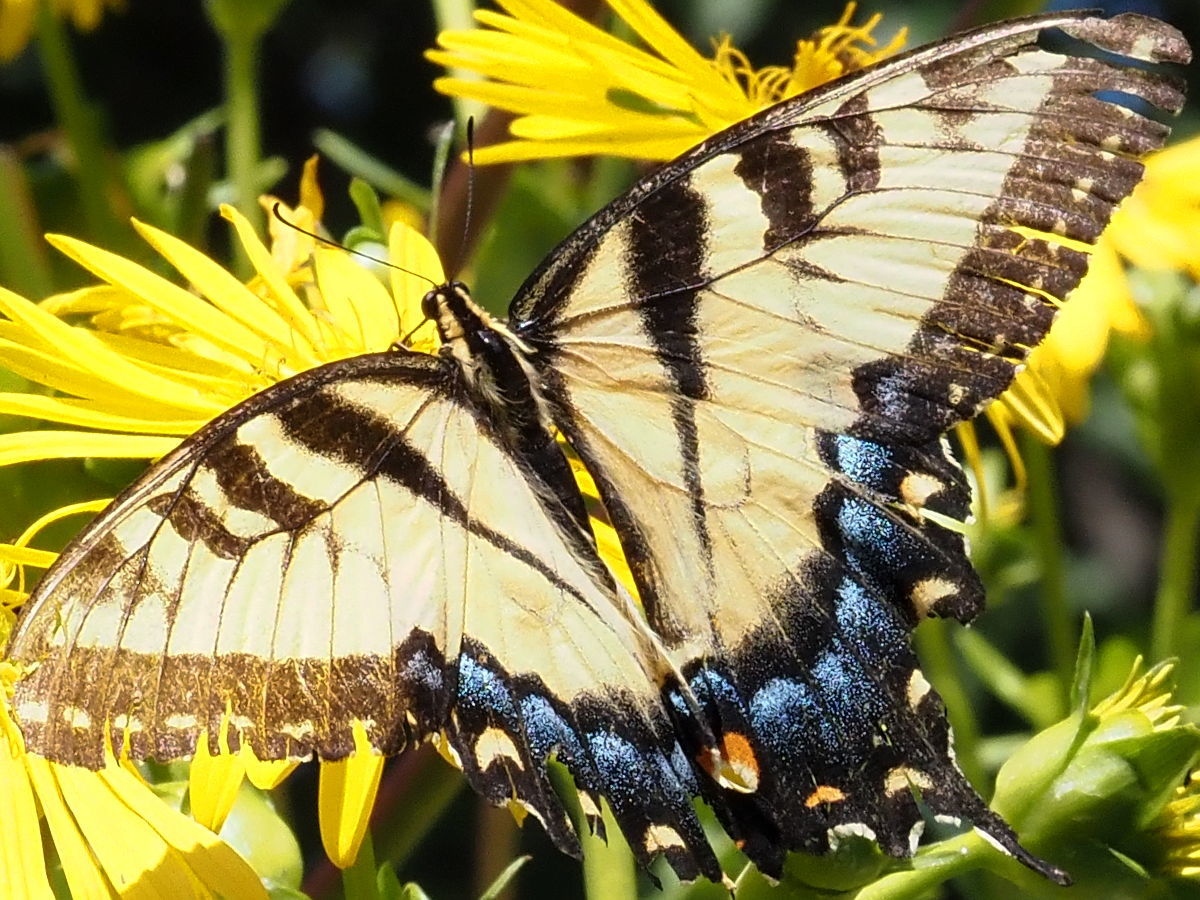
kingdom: Animalia
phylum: Arthropoda
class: Insecta
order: Lepidoptera
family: Papilionidae
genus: Papilio
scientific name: Papilio glaucus
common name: Tiger swallowtail
